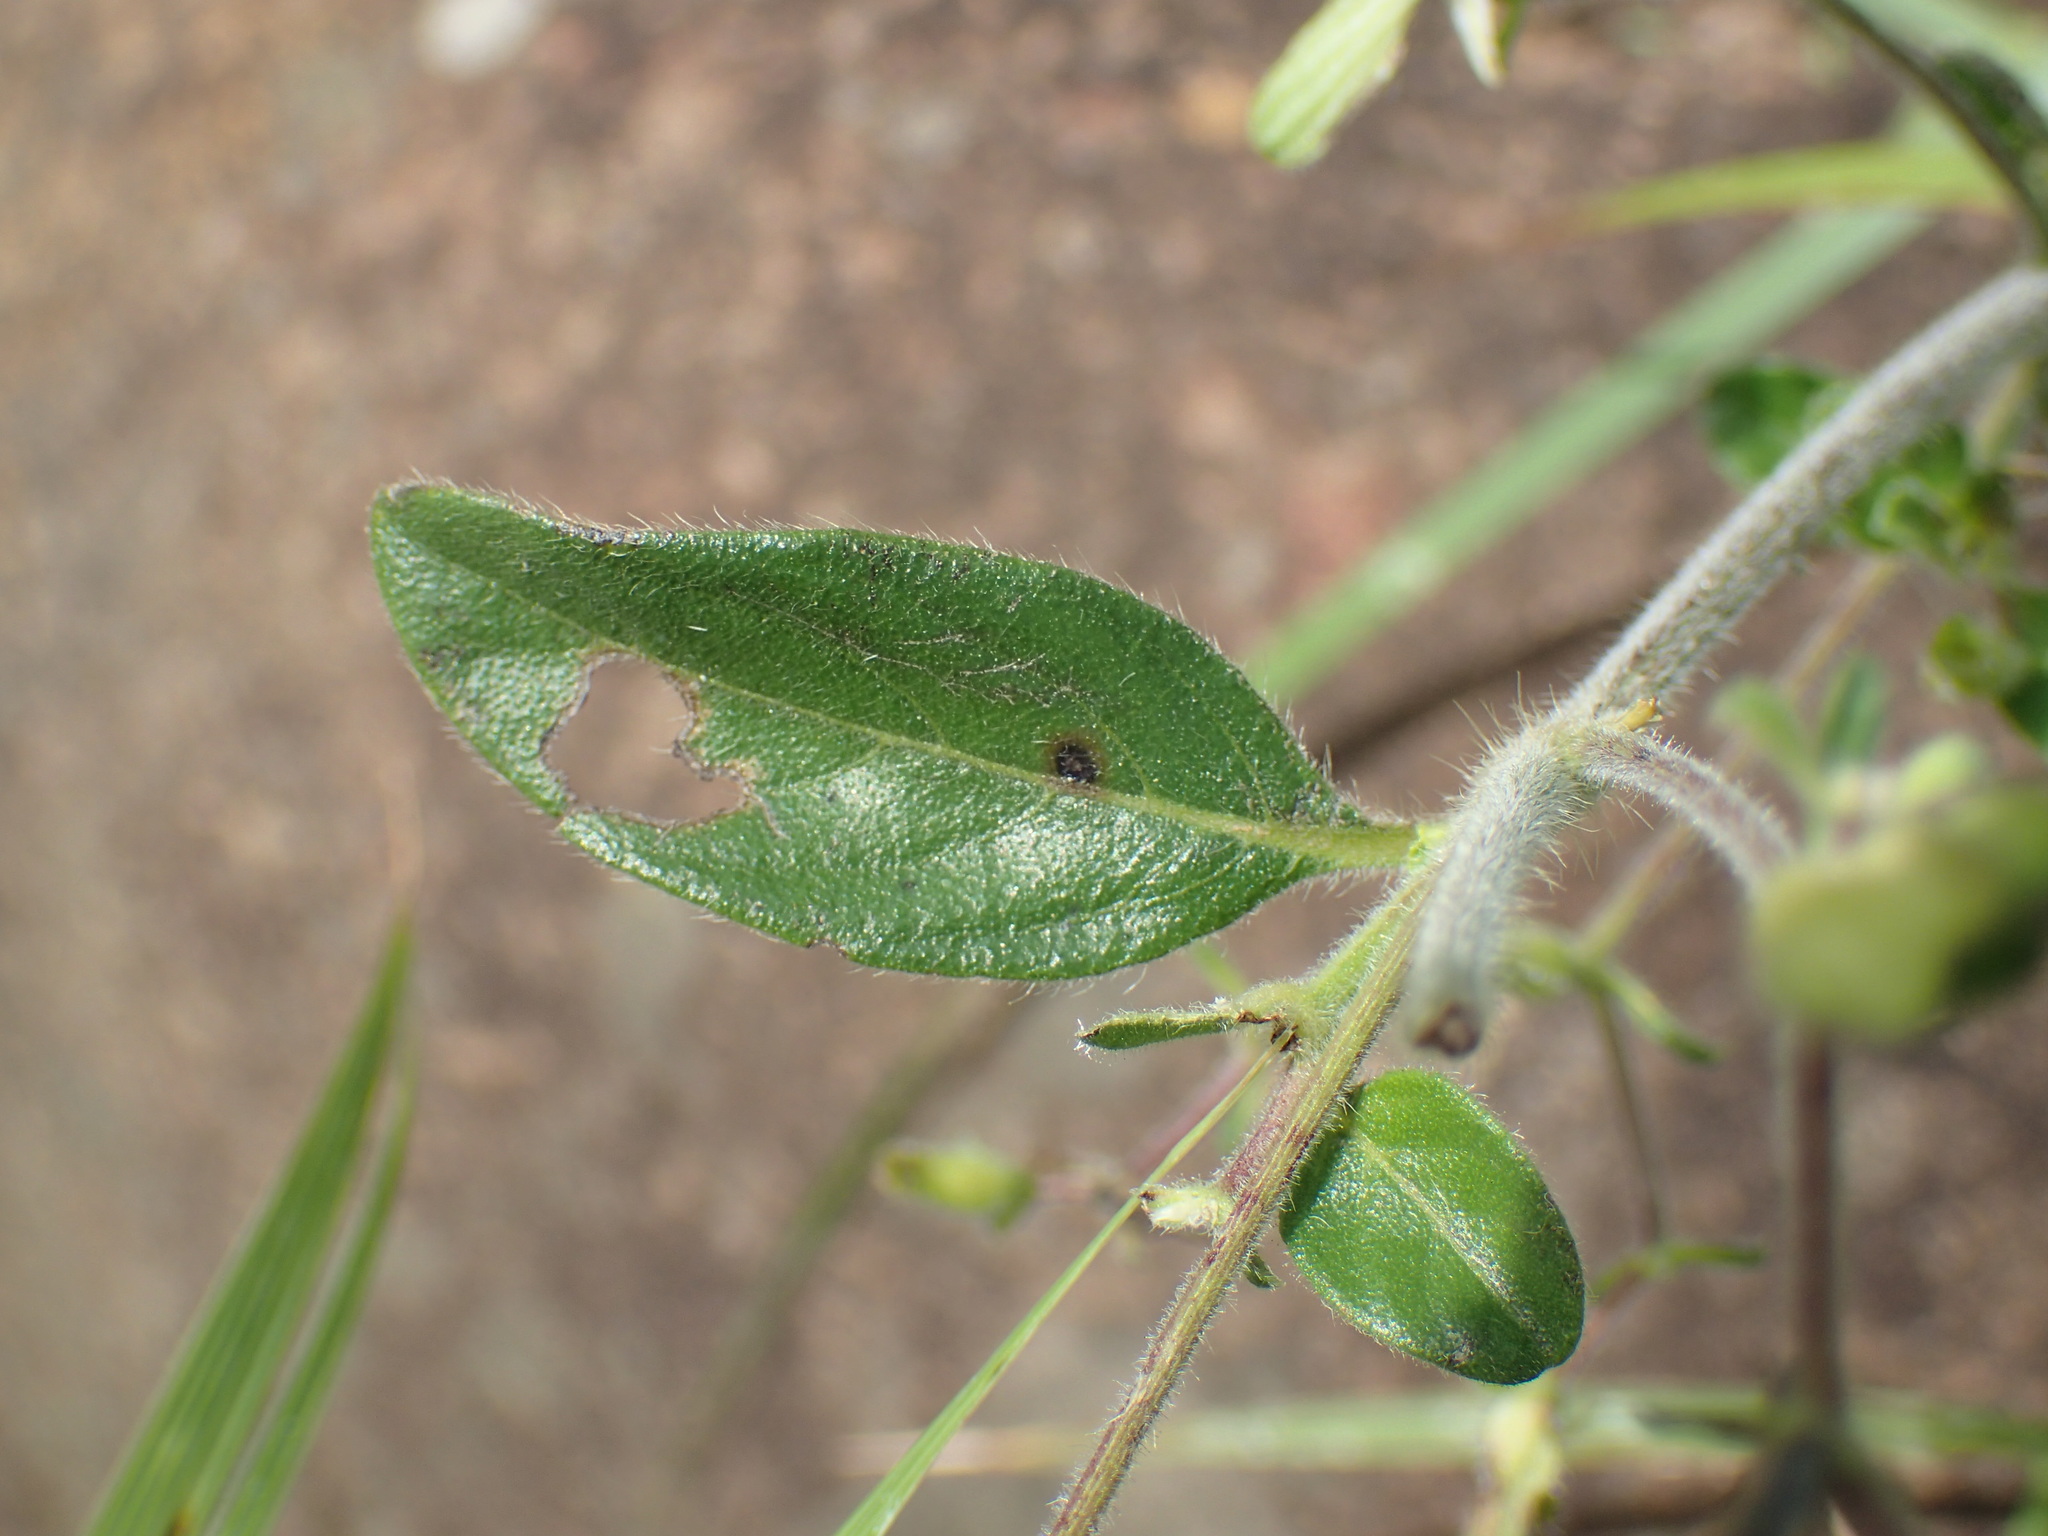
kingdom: Plantae
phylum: Tracheophyta
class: Magnoliopsida
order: Lamiales
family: Acanthaceae
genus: Barleria
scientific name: Barleria obtusa
